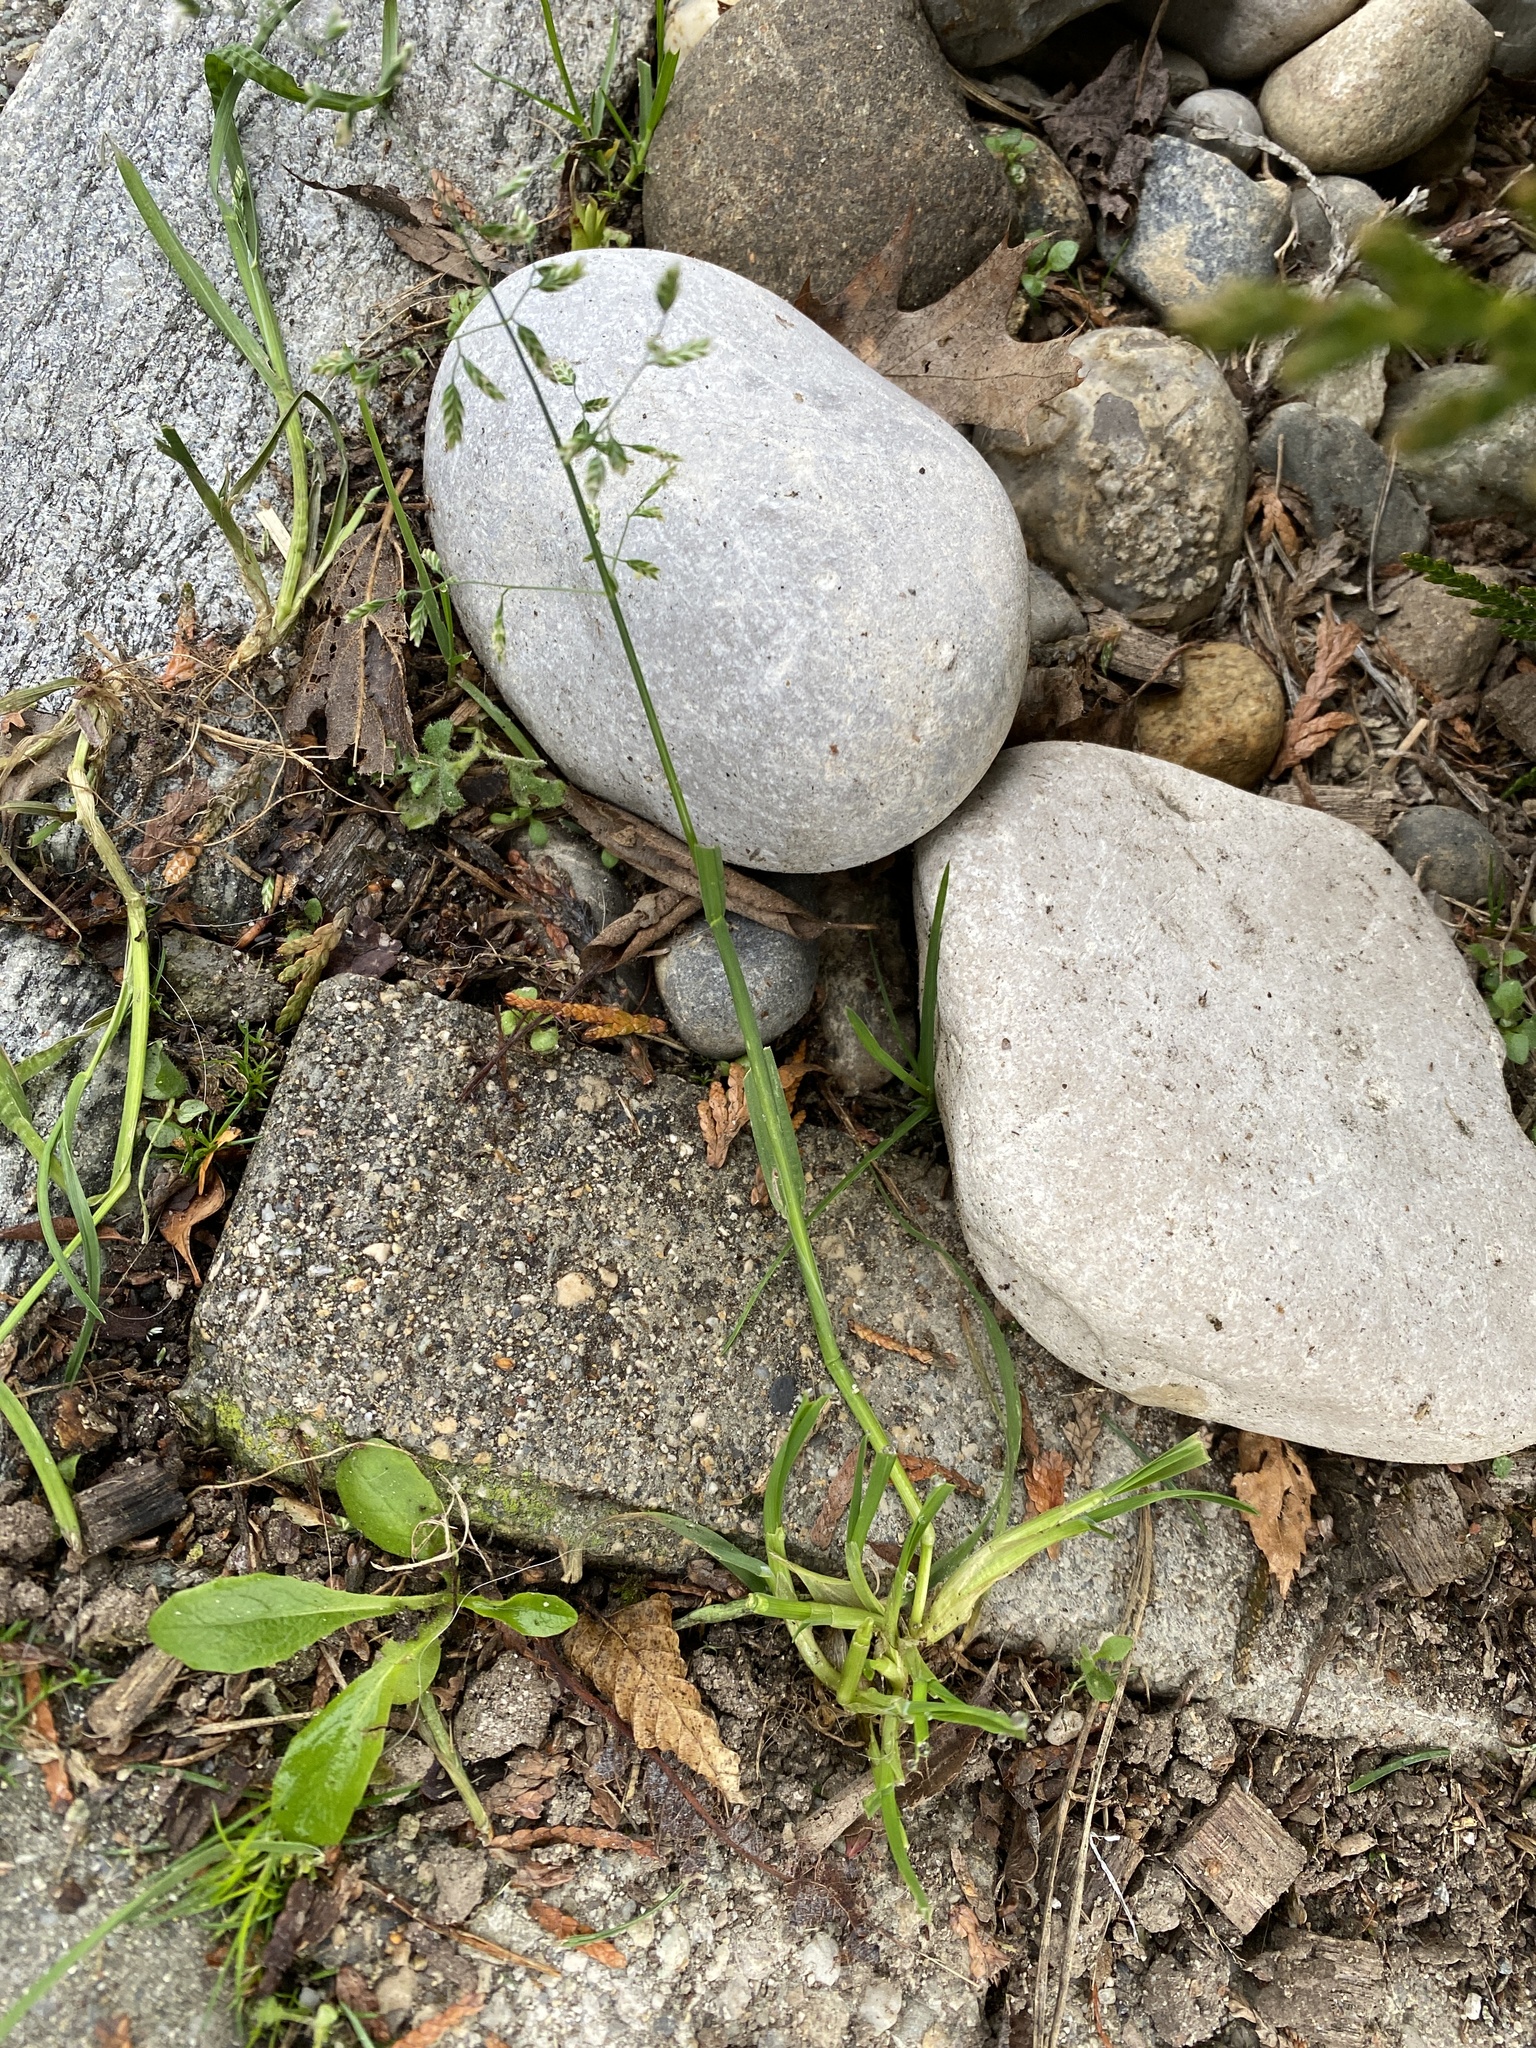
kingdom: Plantae
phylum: Tracheophyta
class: Liliopsida
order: Poales
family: Poaceae
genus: Poa
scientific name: Poa annua
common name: Annual bluegrass
